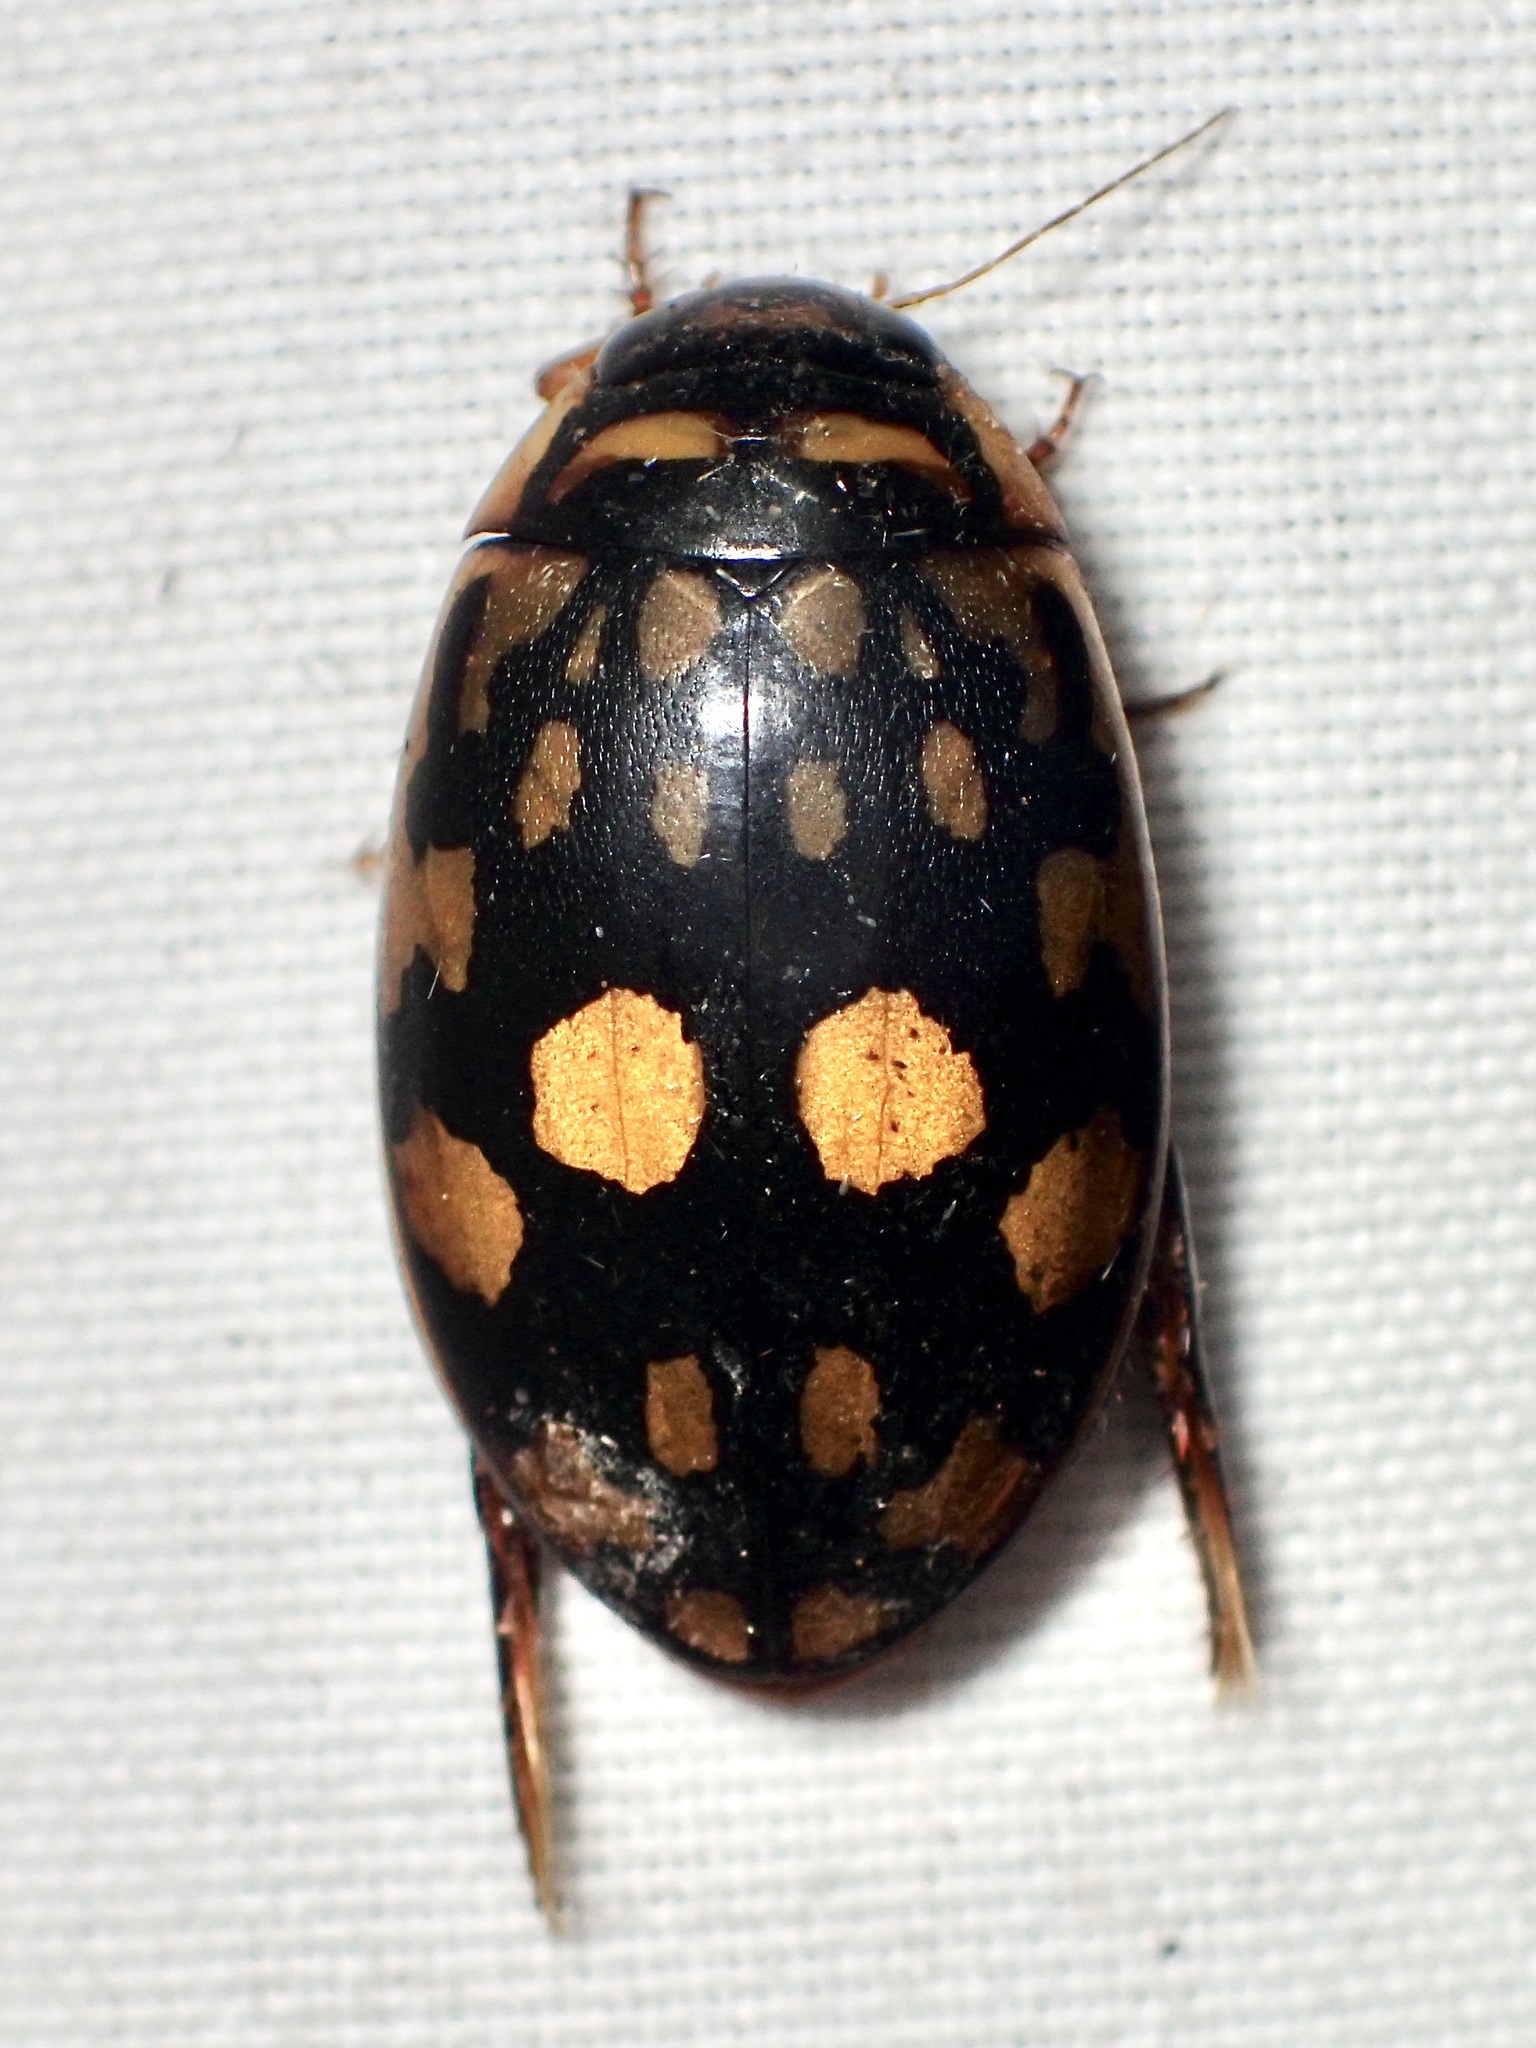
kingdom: Animalia
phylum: Arthropoda
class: Insecta
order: Coleoptera
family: Dytiscidae
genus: Thermonectus
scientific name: Thermonectus marmoratus
